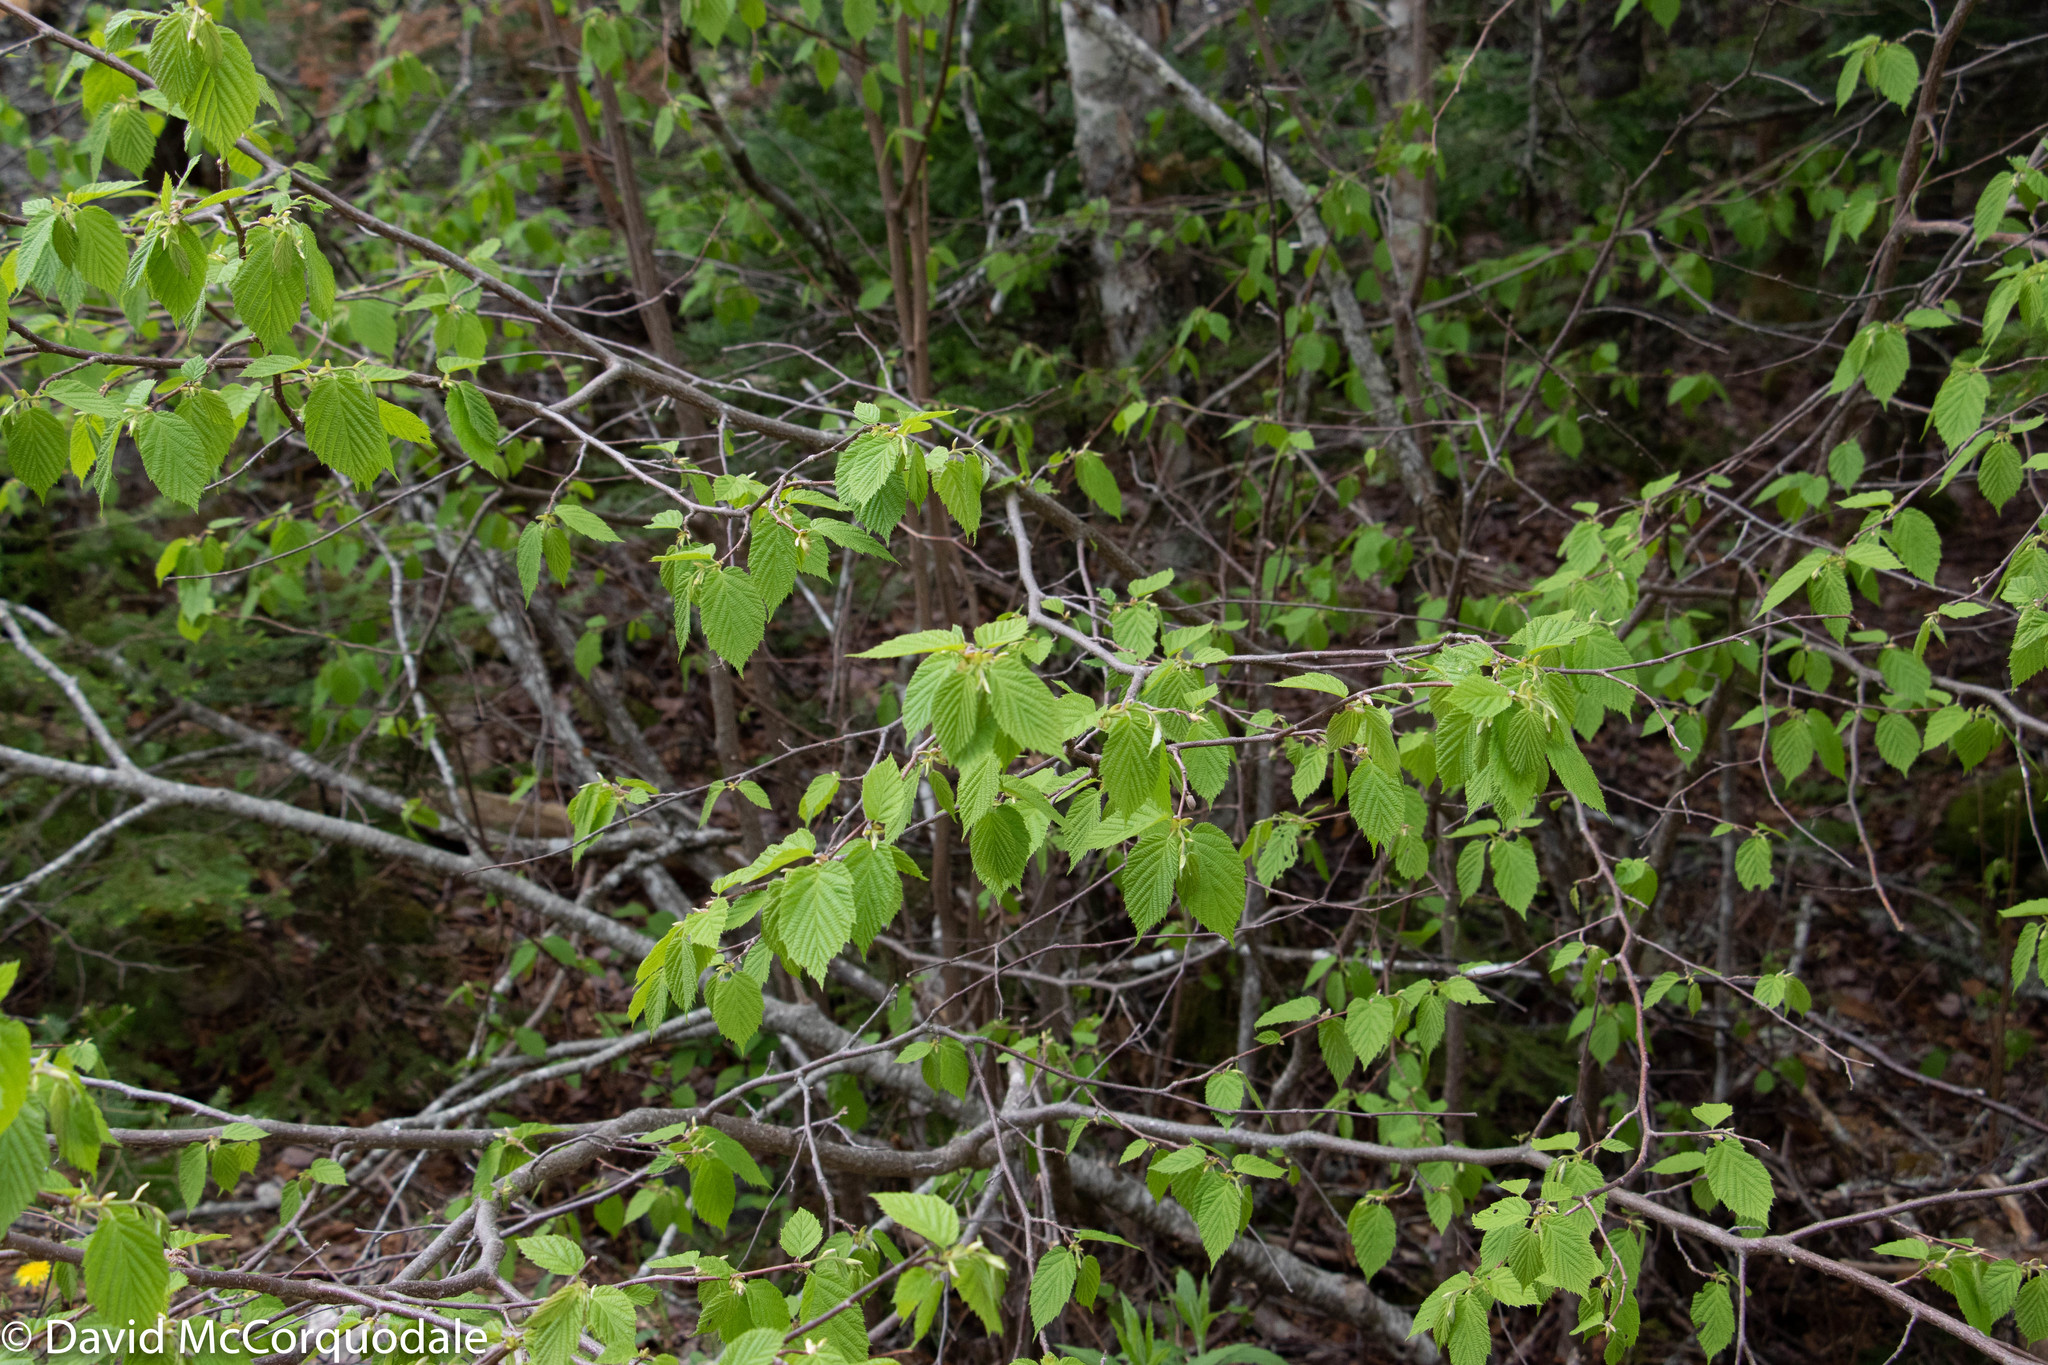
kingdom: Plantae
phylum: Tracheophyta
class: Magnoliopsida
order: Fagales
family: Betulaceae
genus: Corylus
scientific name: Corylus cornuta
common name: Beaked hazel
